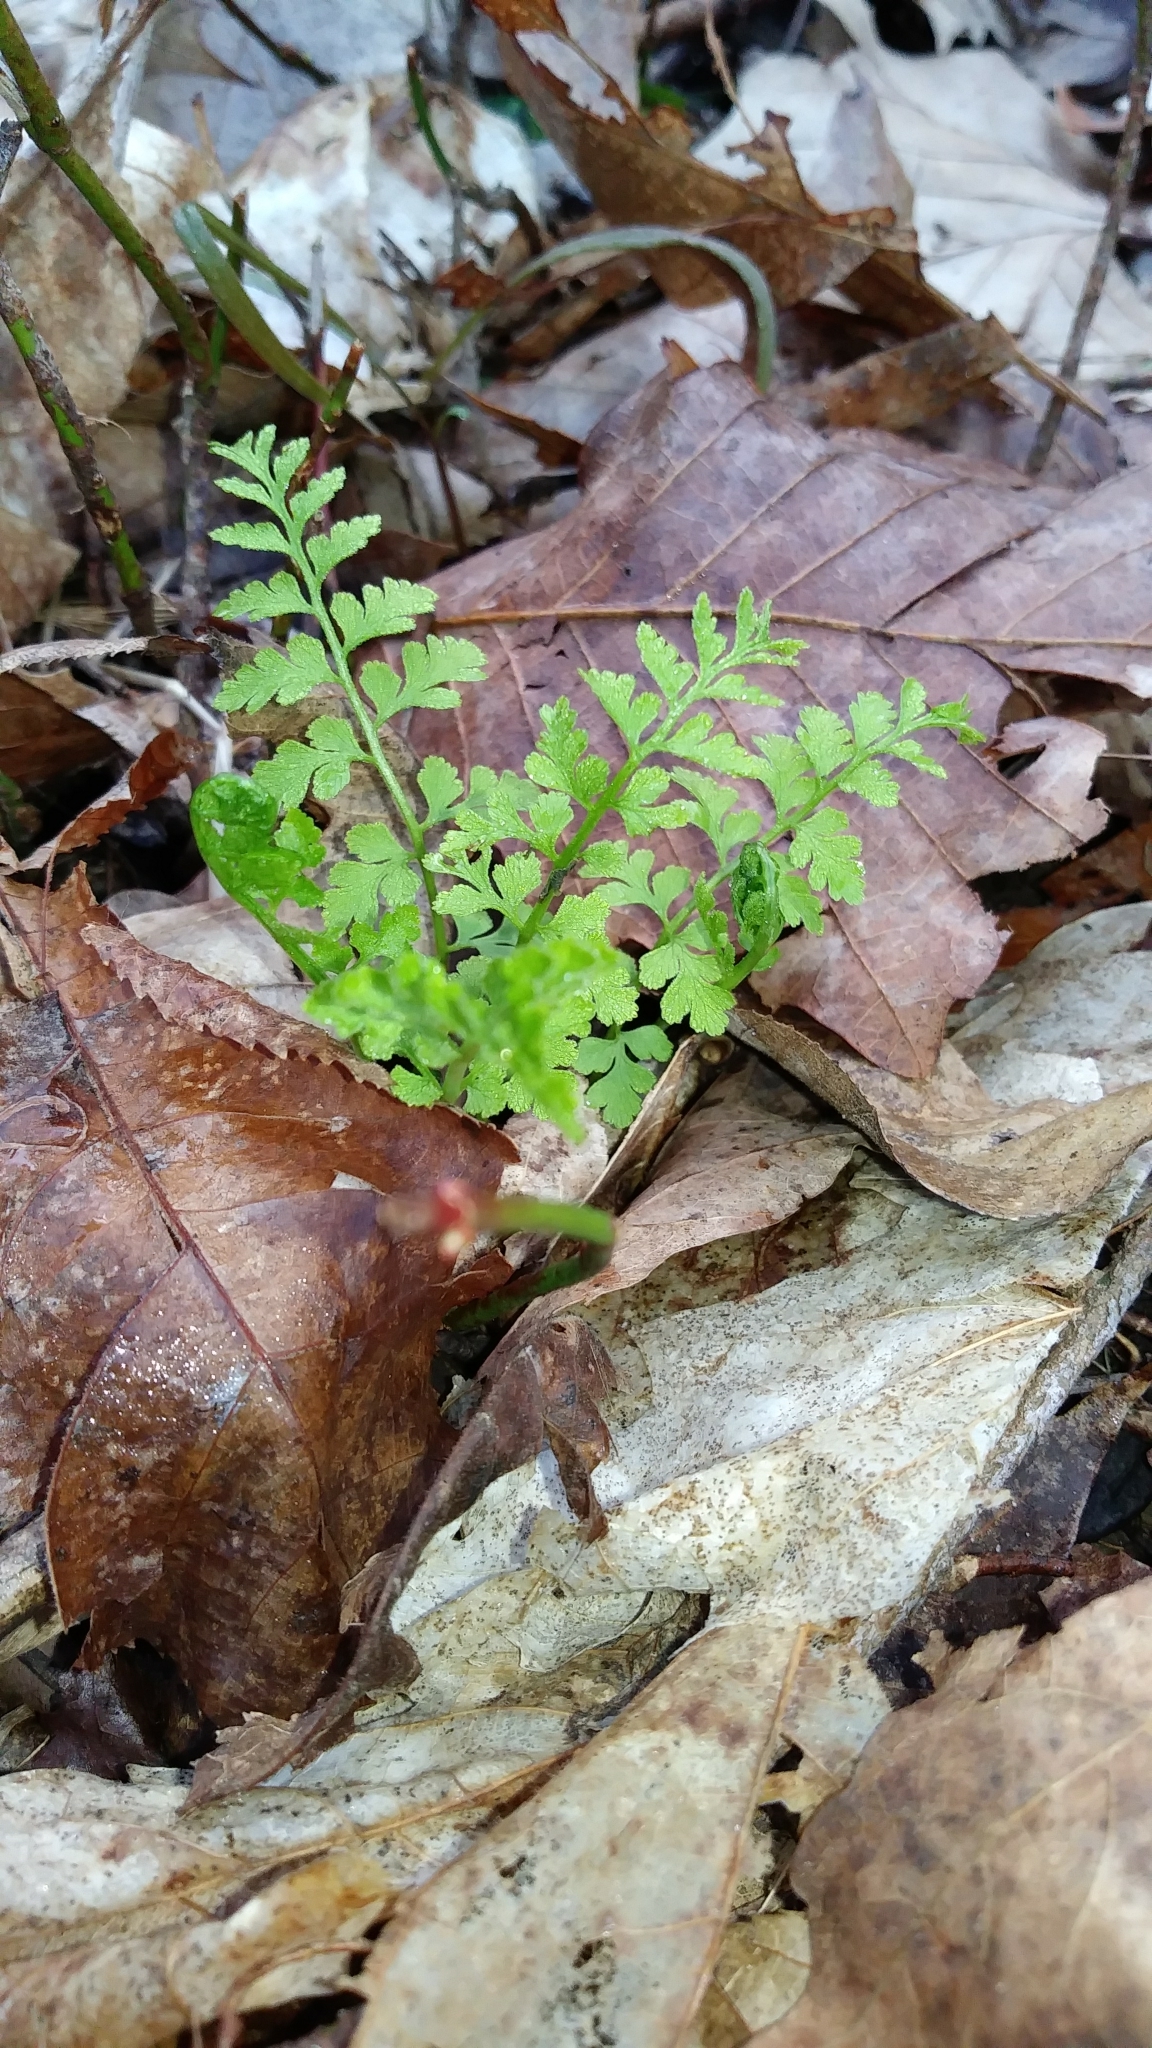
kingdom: Plantae
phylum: Tracheophyta
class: Polypodiopsida
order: Polypodiales
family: Cystopteridaceae
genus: Cystopteris
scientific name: Cystopteris protrusa
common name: Lowland brittle fern
